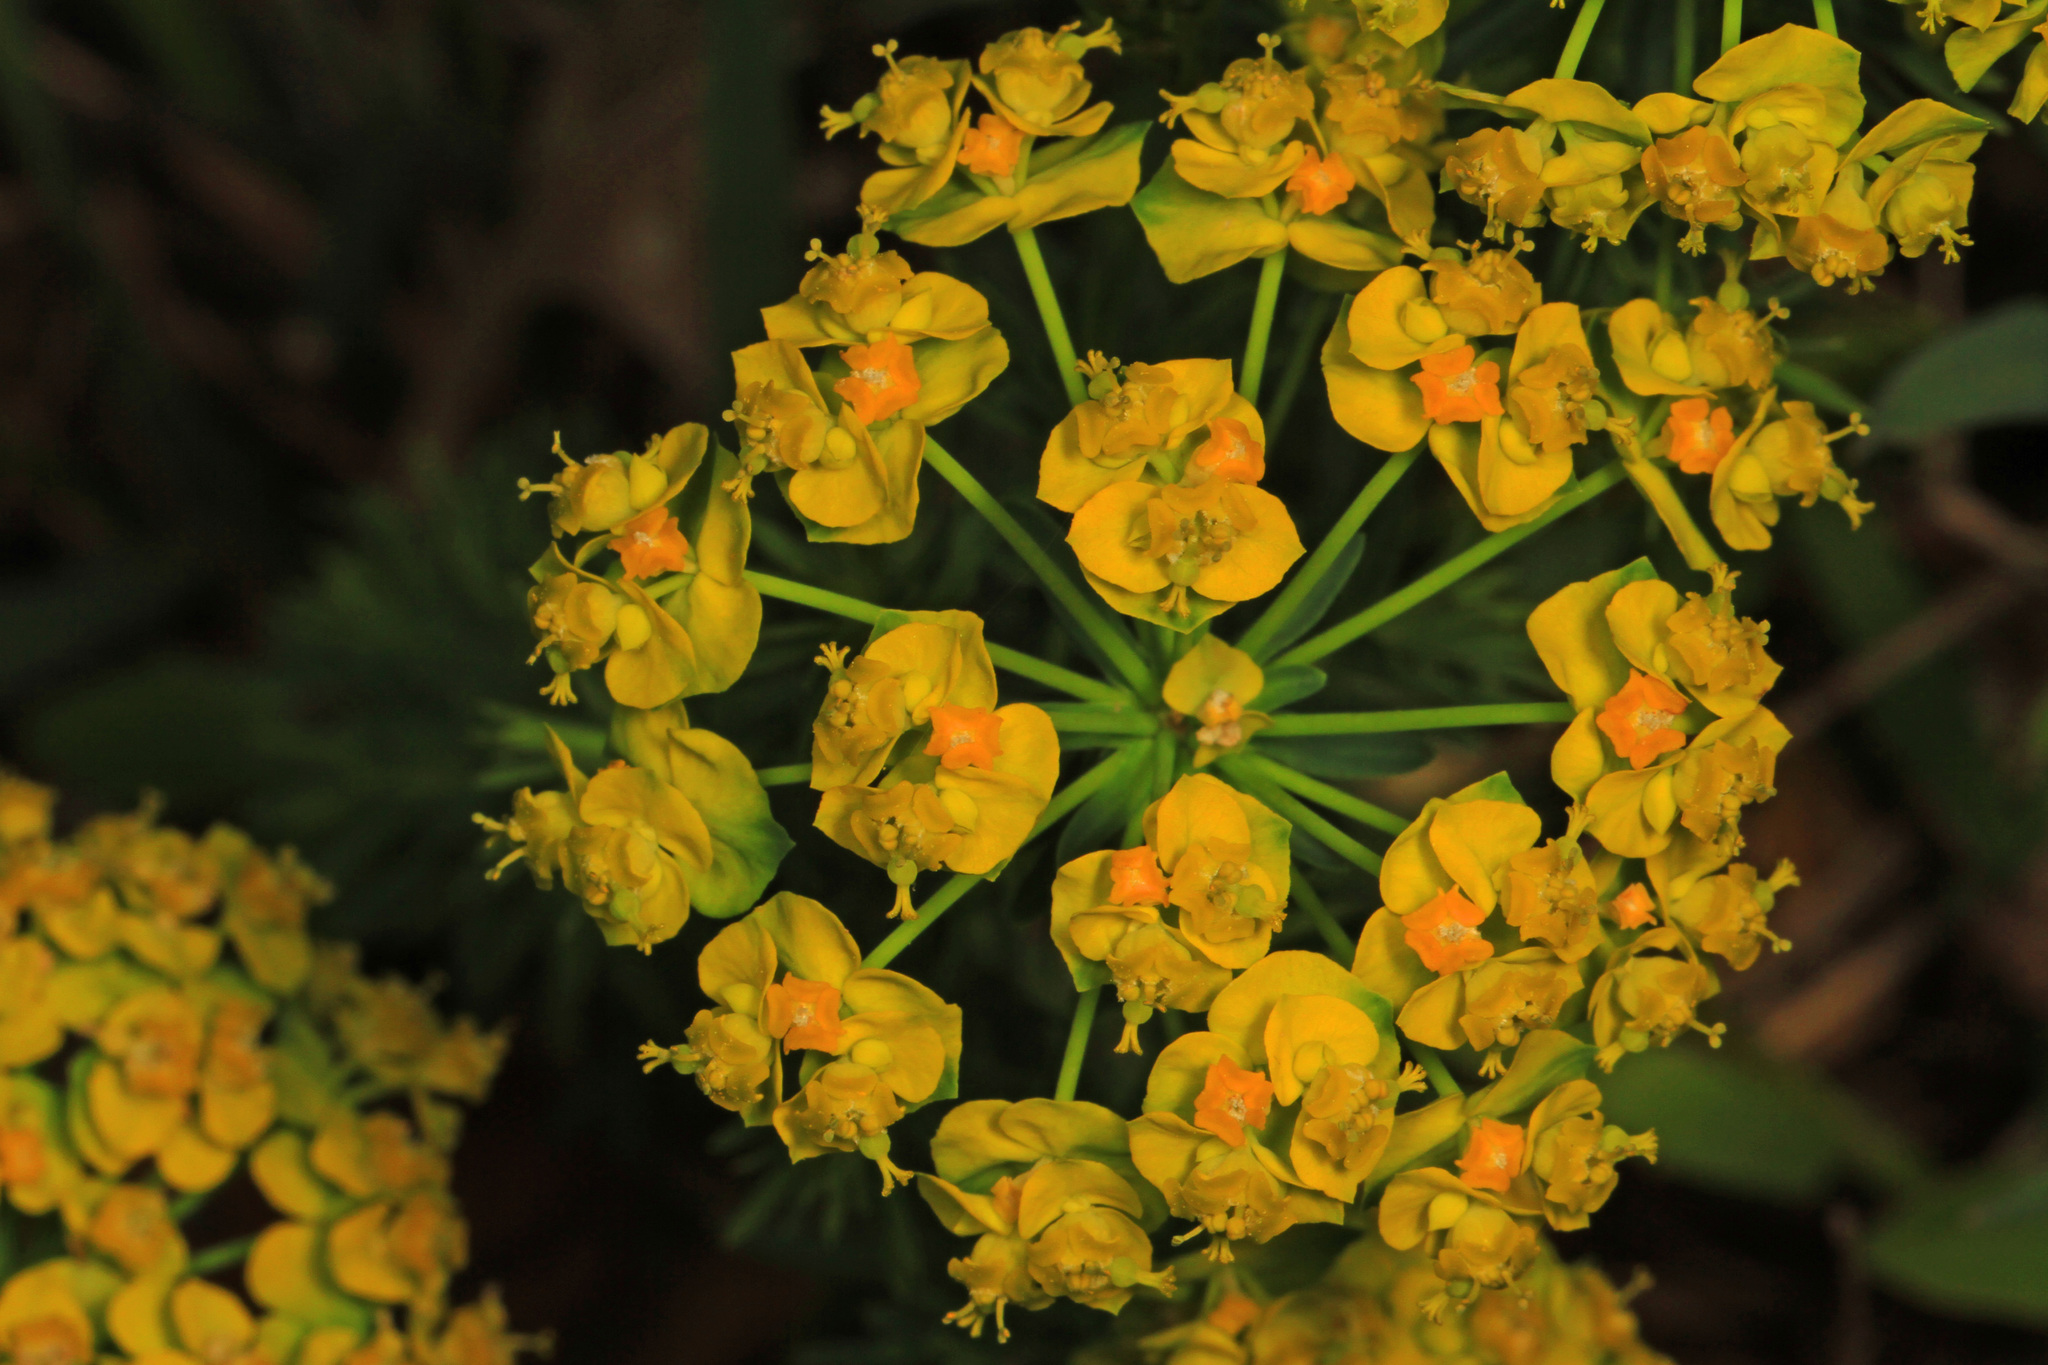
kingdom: Plantae
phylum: Tracheophyta
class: Magnoliopsida
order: Malpighiales
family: Euphorbiaceae
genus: Euphorbia
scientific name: Euphorbia cyparissias
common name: Cypress spurge
